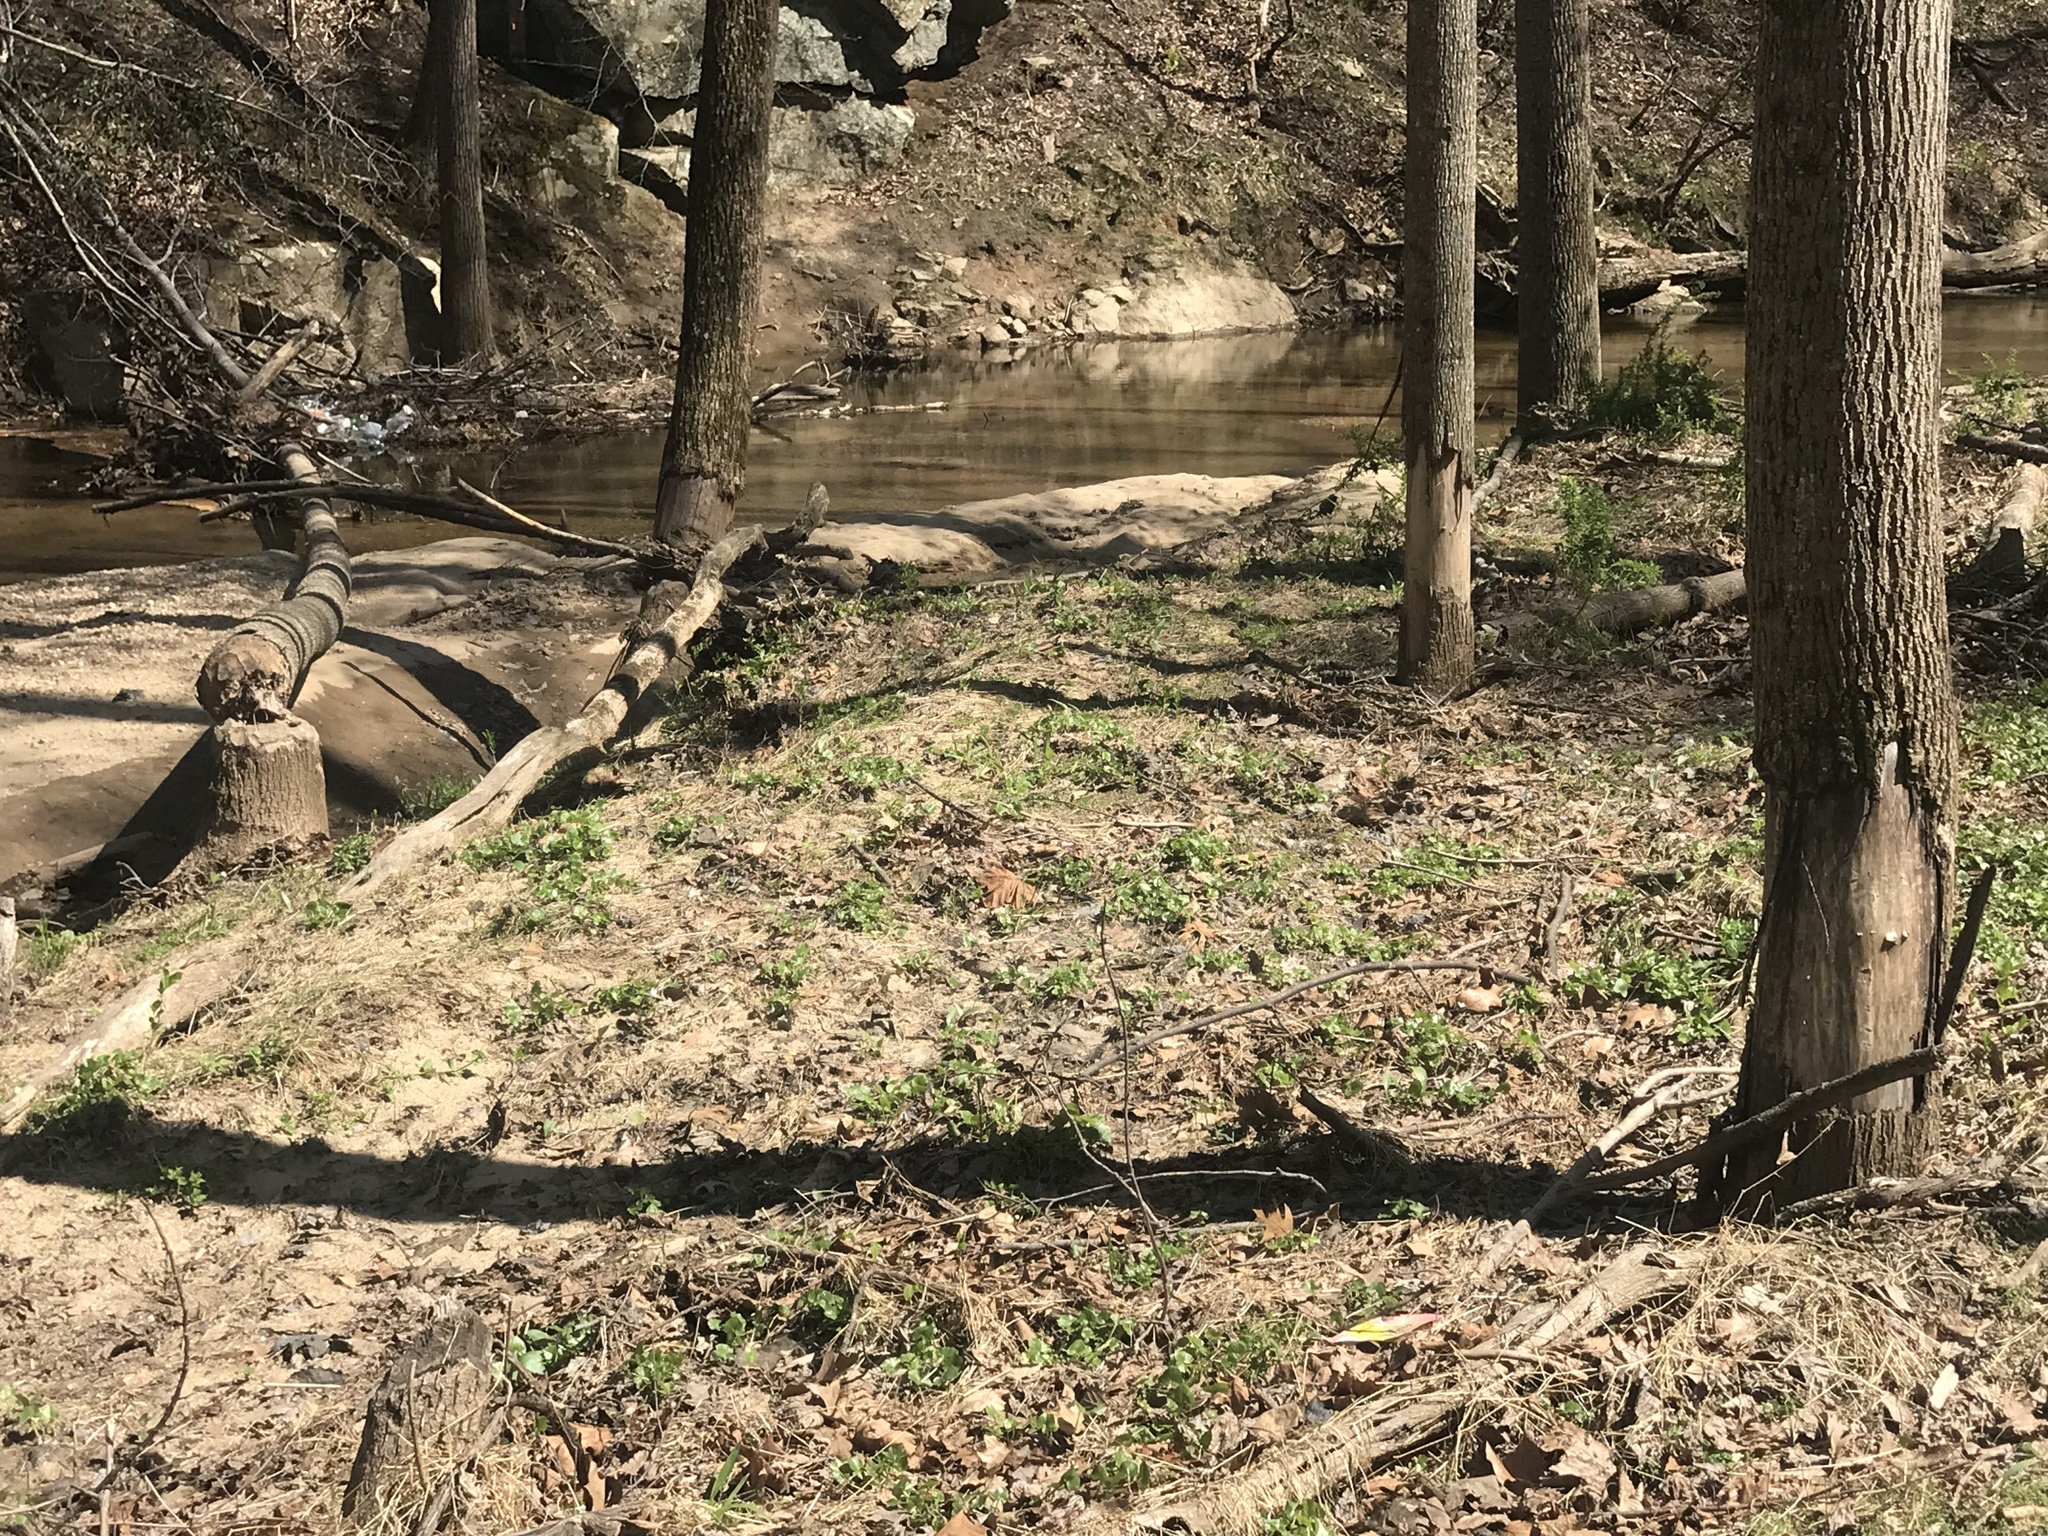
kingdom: Animalia
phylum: Chordata
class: Mammalia
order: Rodentia
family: Castoridae
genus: Castor
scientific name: Castor canadensis
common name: American beaver
